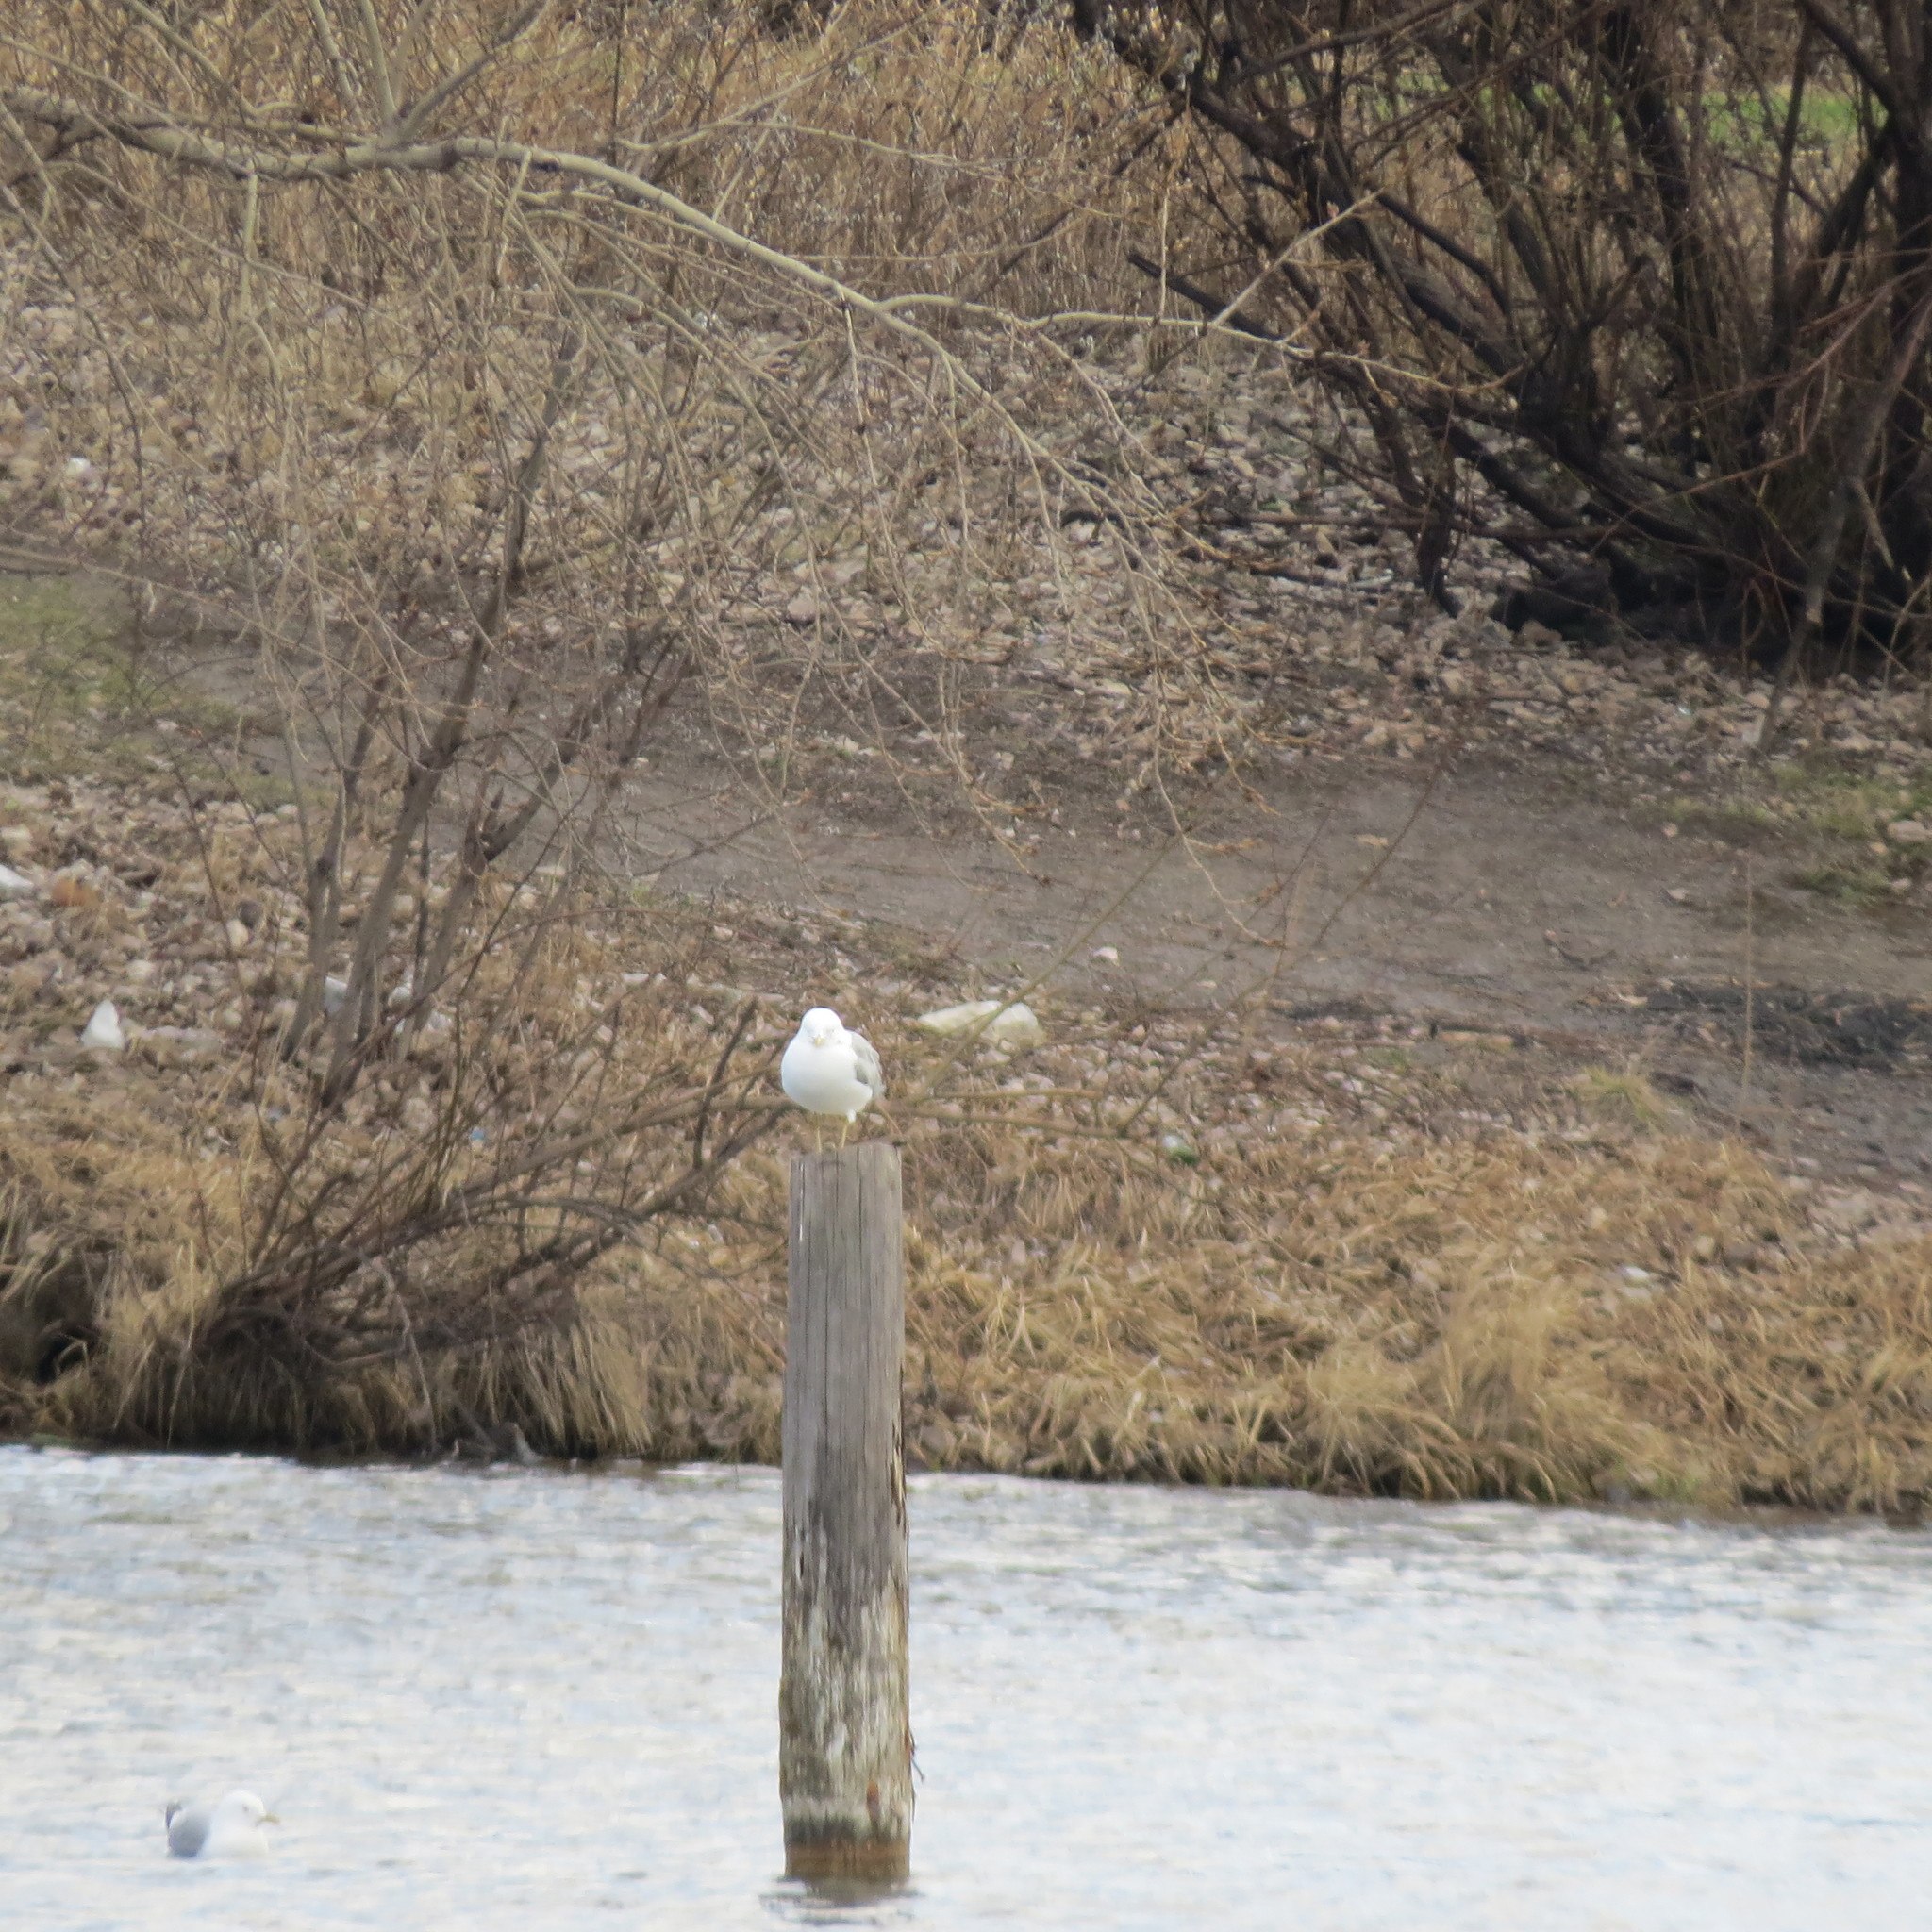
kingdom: Animalia
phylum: Chordata
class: Aves
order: Charadriiformes
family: Laridae
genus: Larus
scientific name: Larus canus
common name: Mew gull
